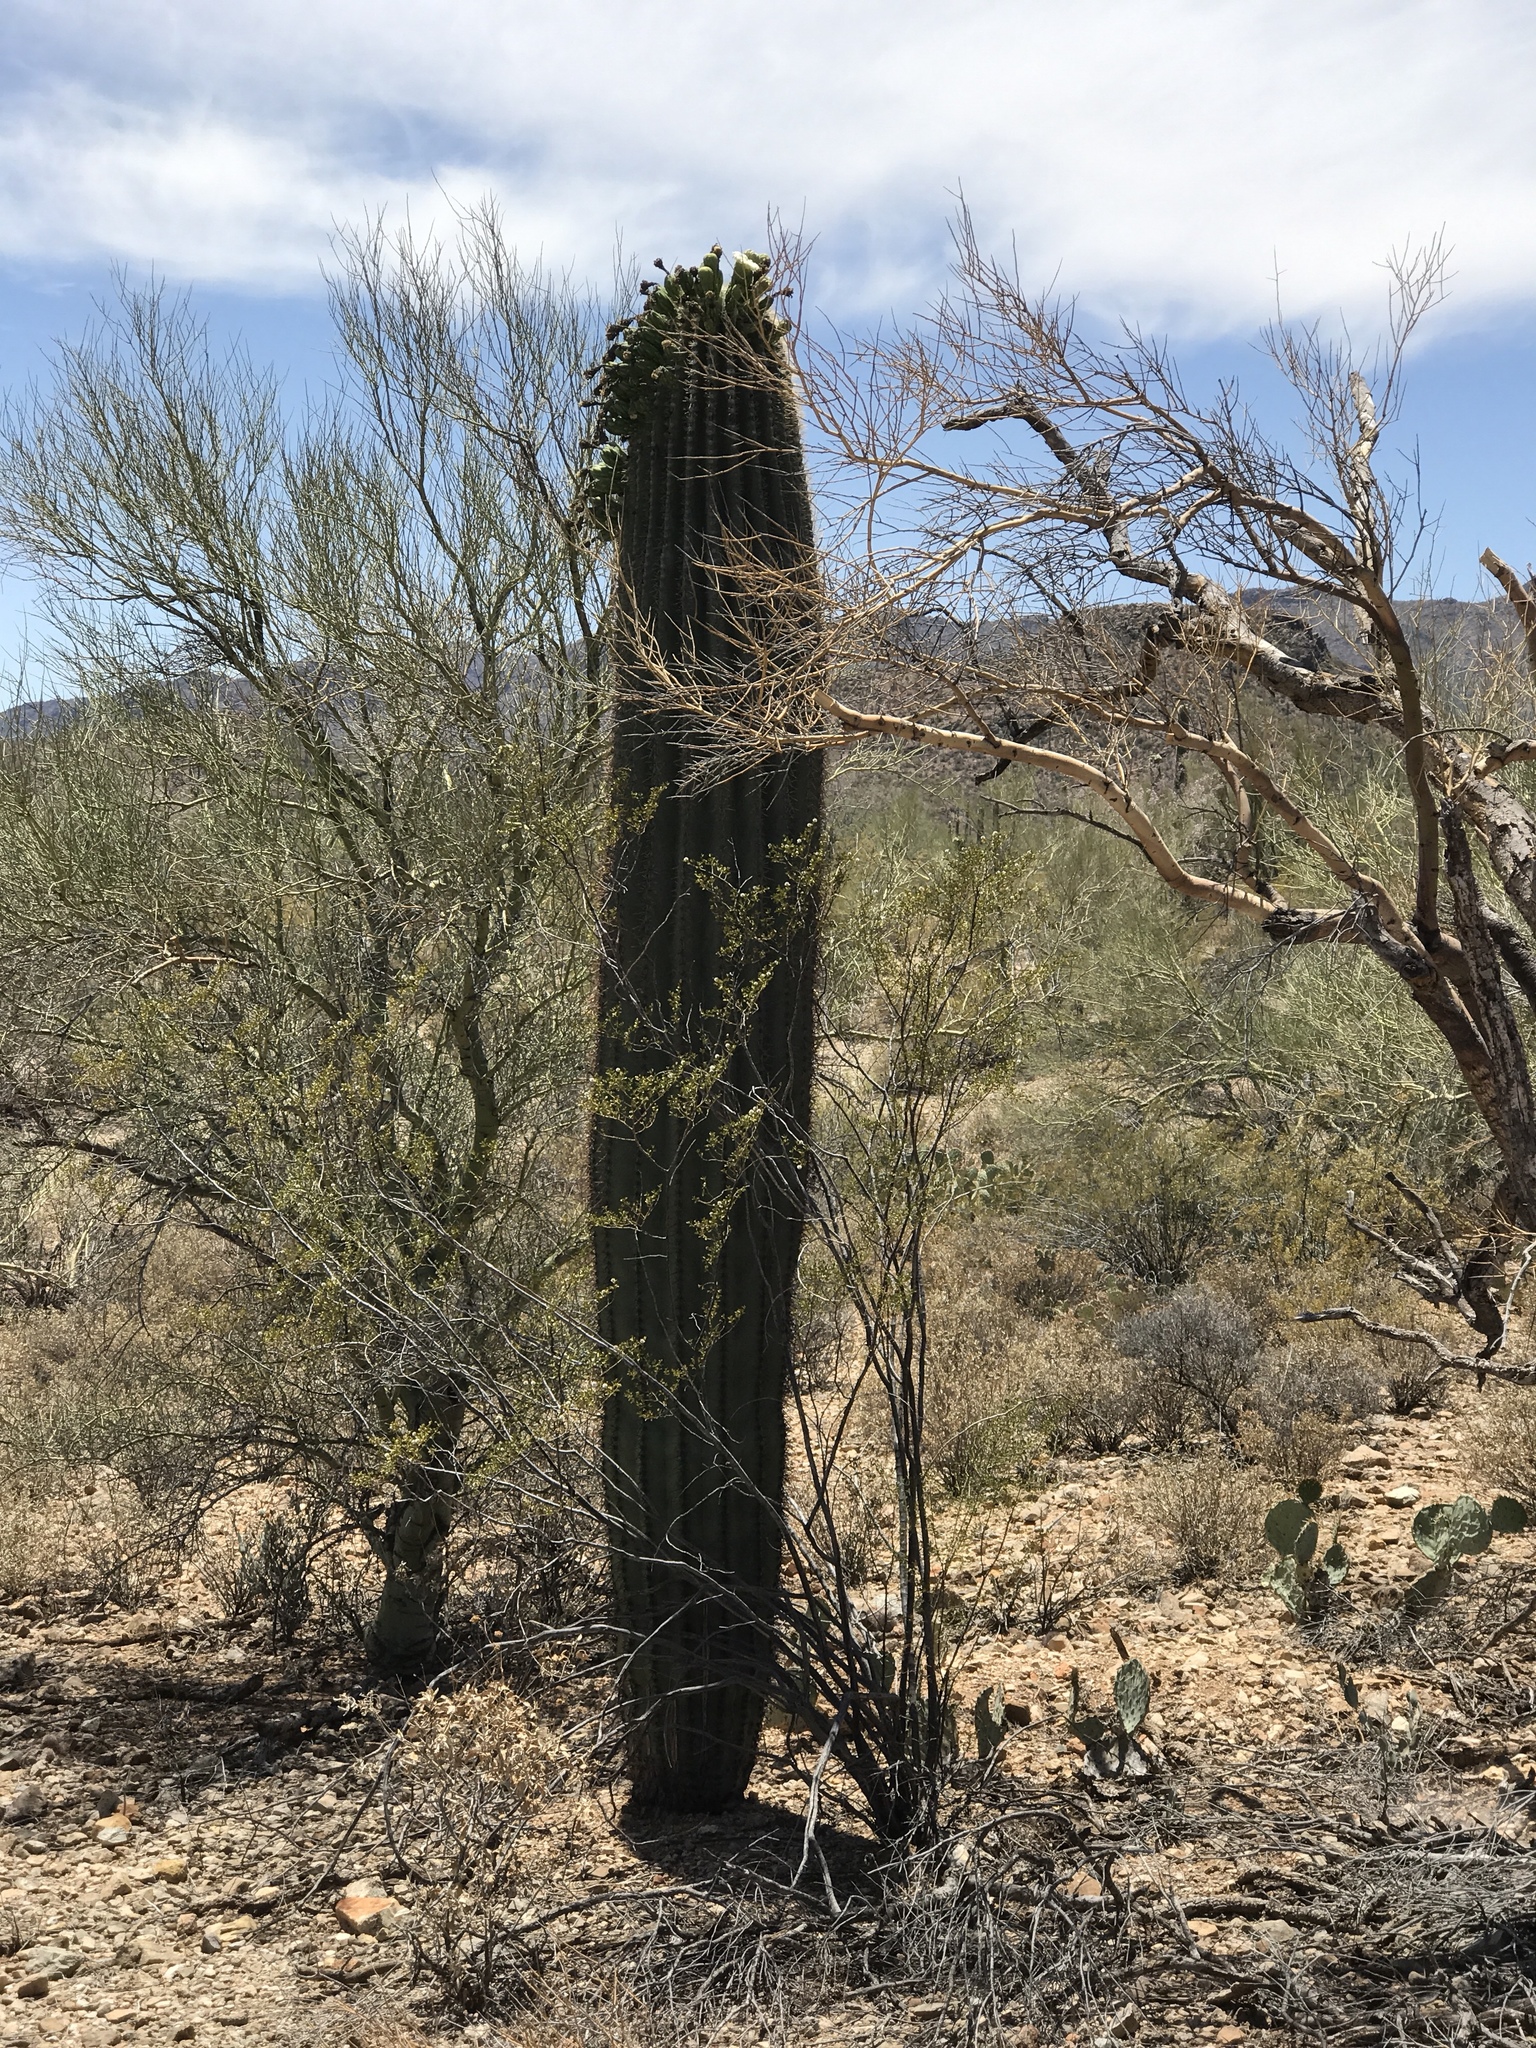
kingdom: Plantae
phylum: Tracheophyta
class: Magnoliopsida
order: Caryophyllales
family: Cactaceae
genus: Carnegiea
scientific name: Carnegiea gigantea
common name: Saguaro
